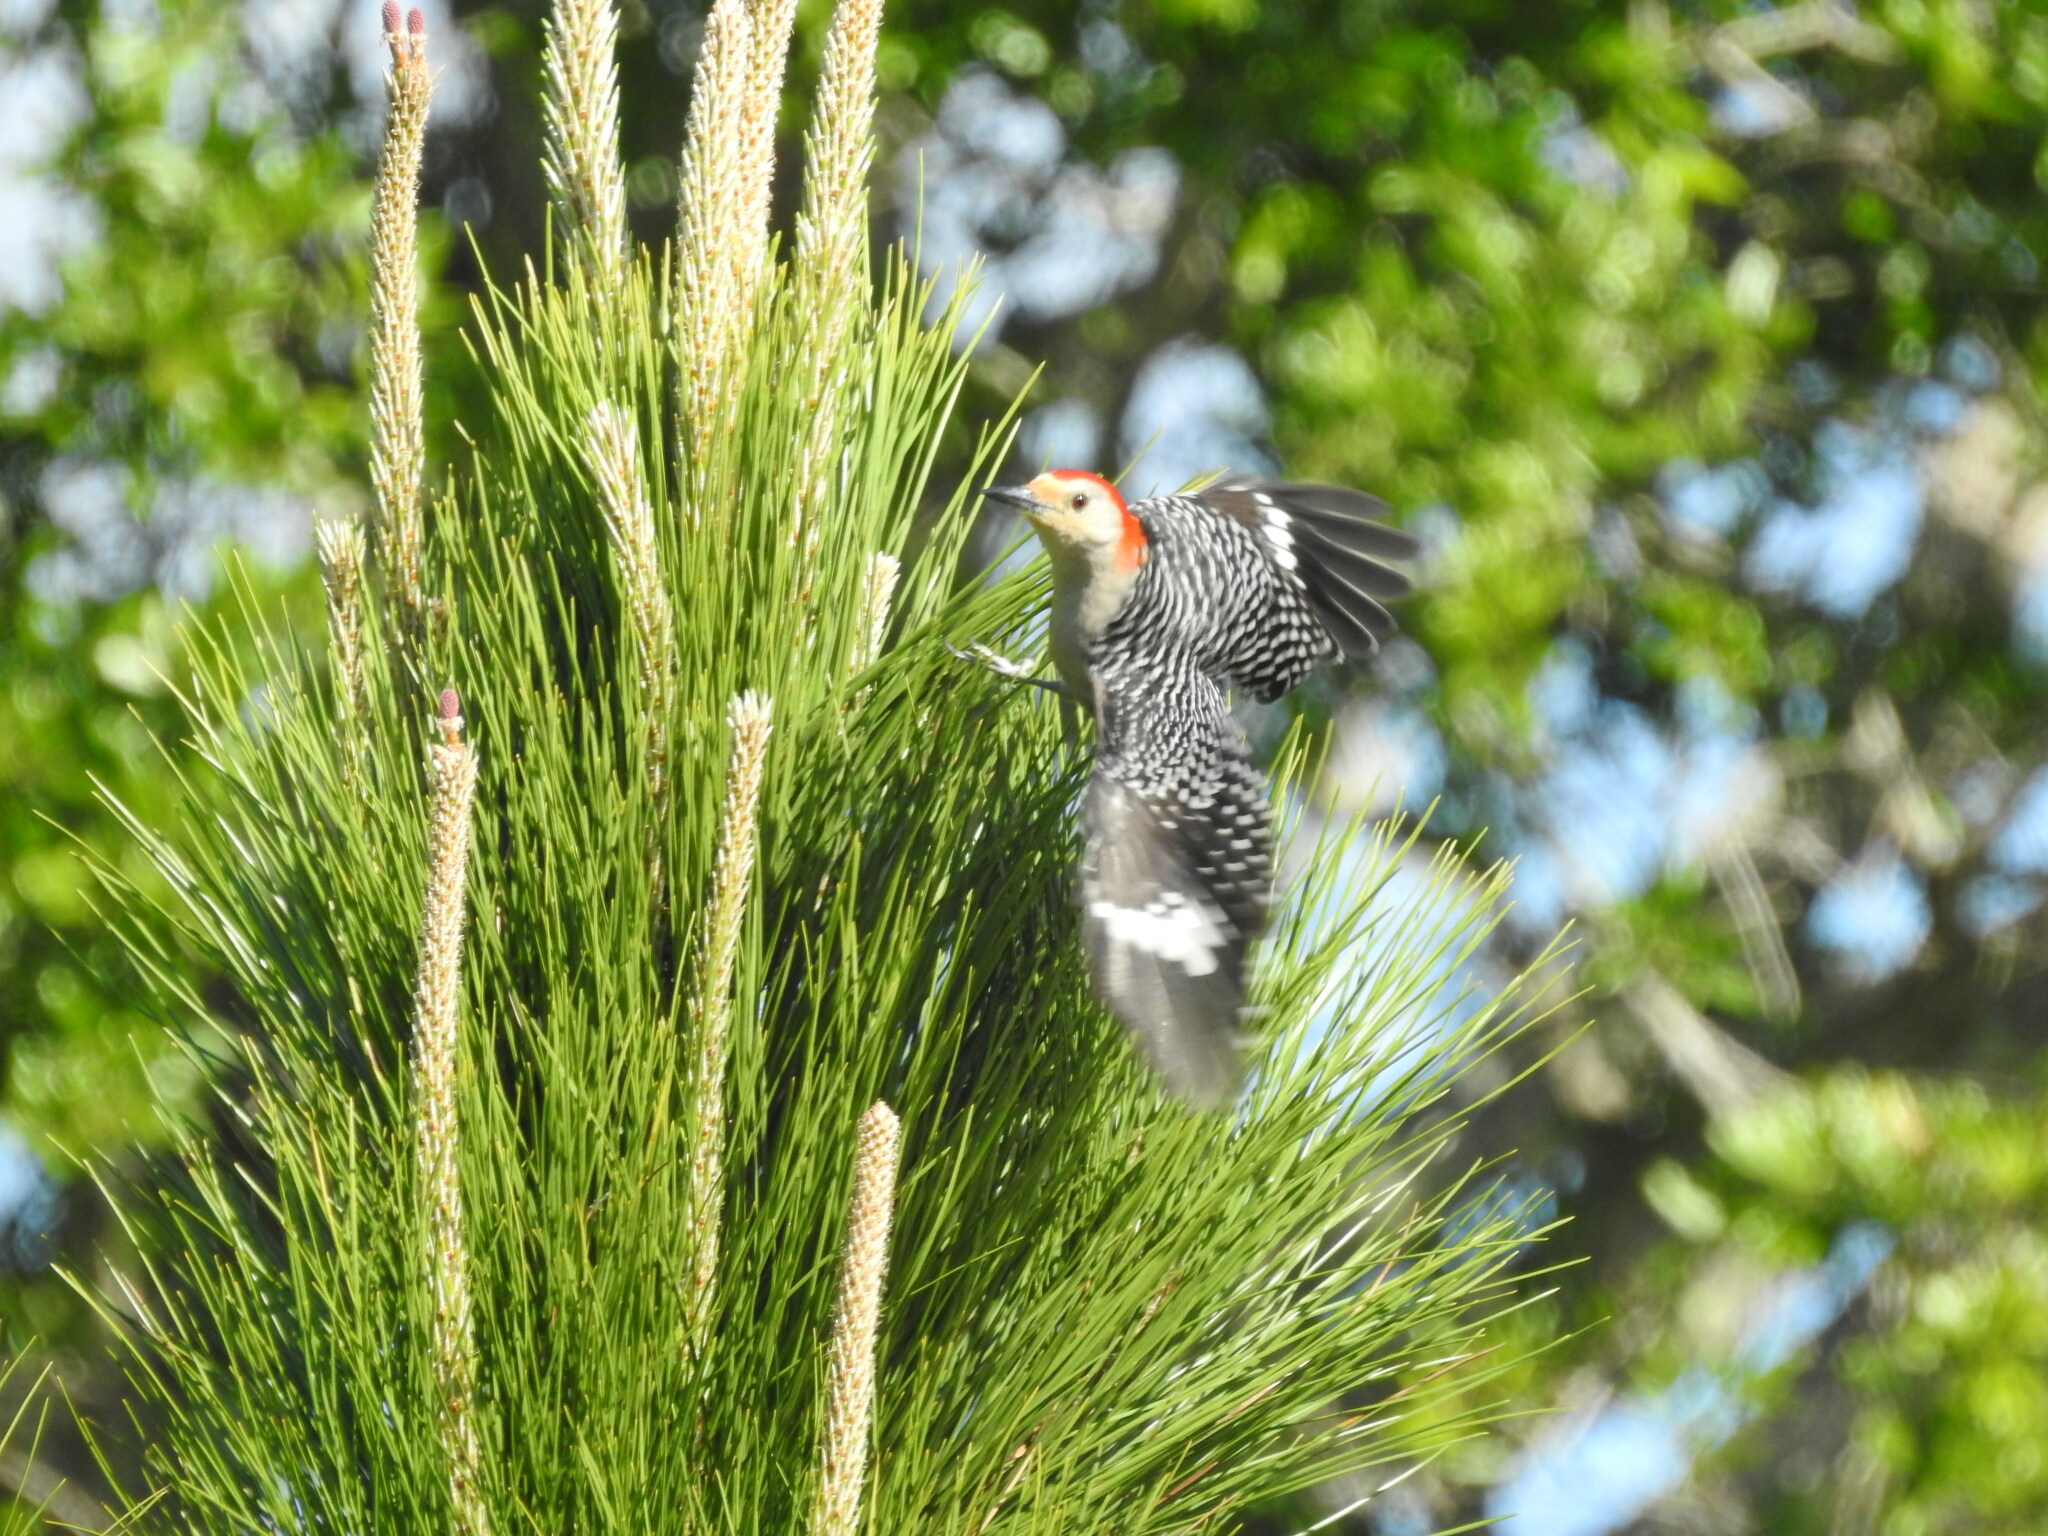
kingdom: Animalia
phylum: Chordata
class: Aves
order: Piciformes
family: Picidae
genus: Melanerpes
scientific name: Melanerpes carolinus
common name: Red-bellied woodpecker
